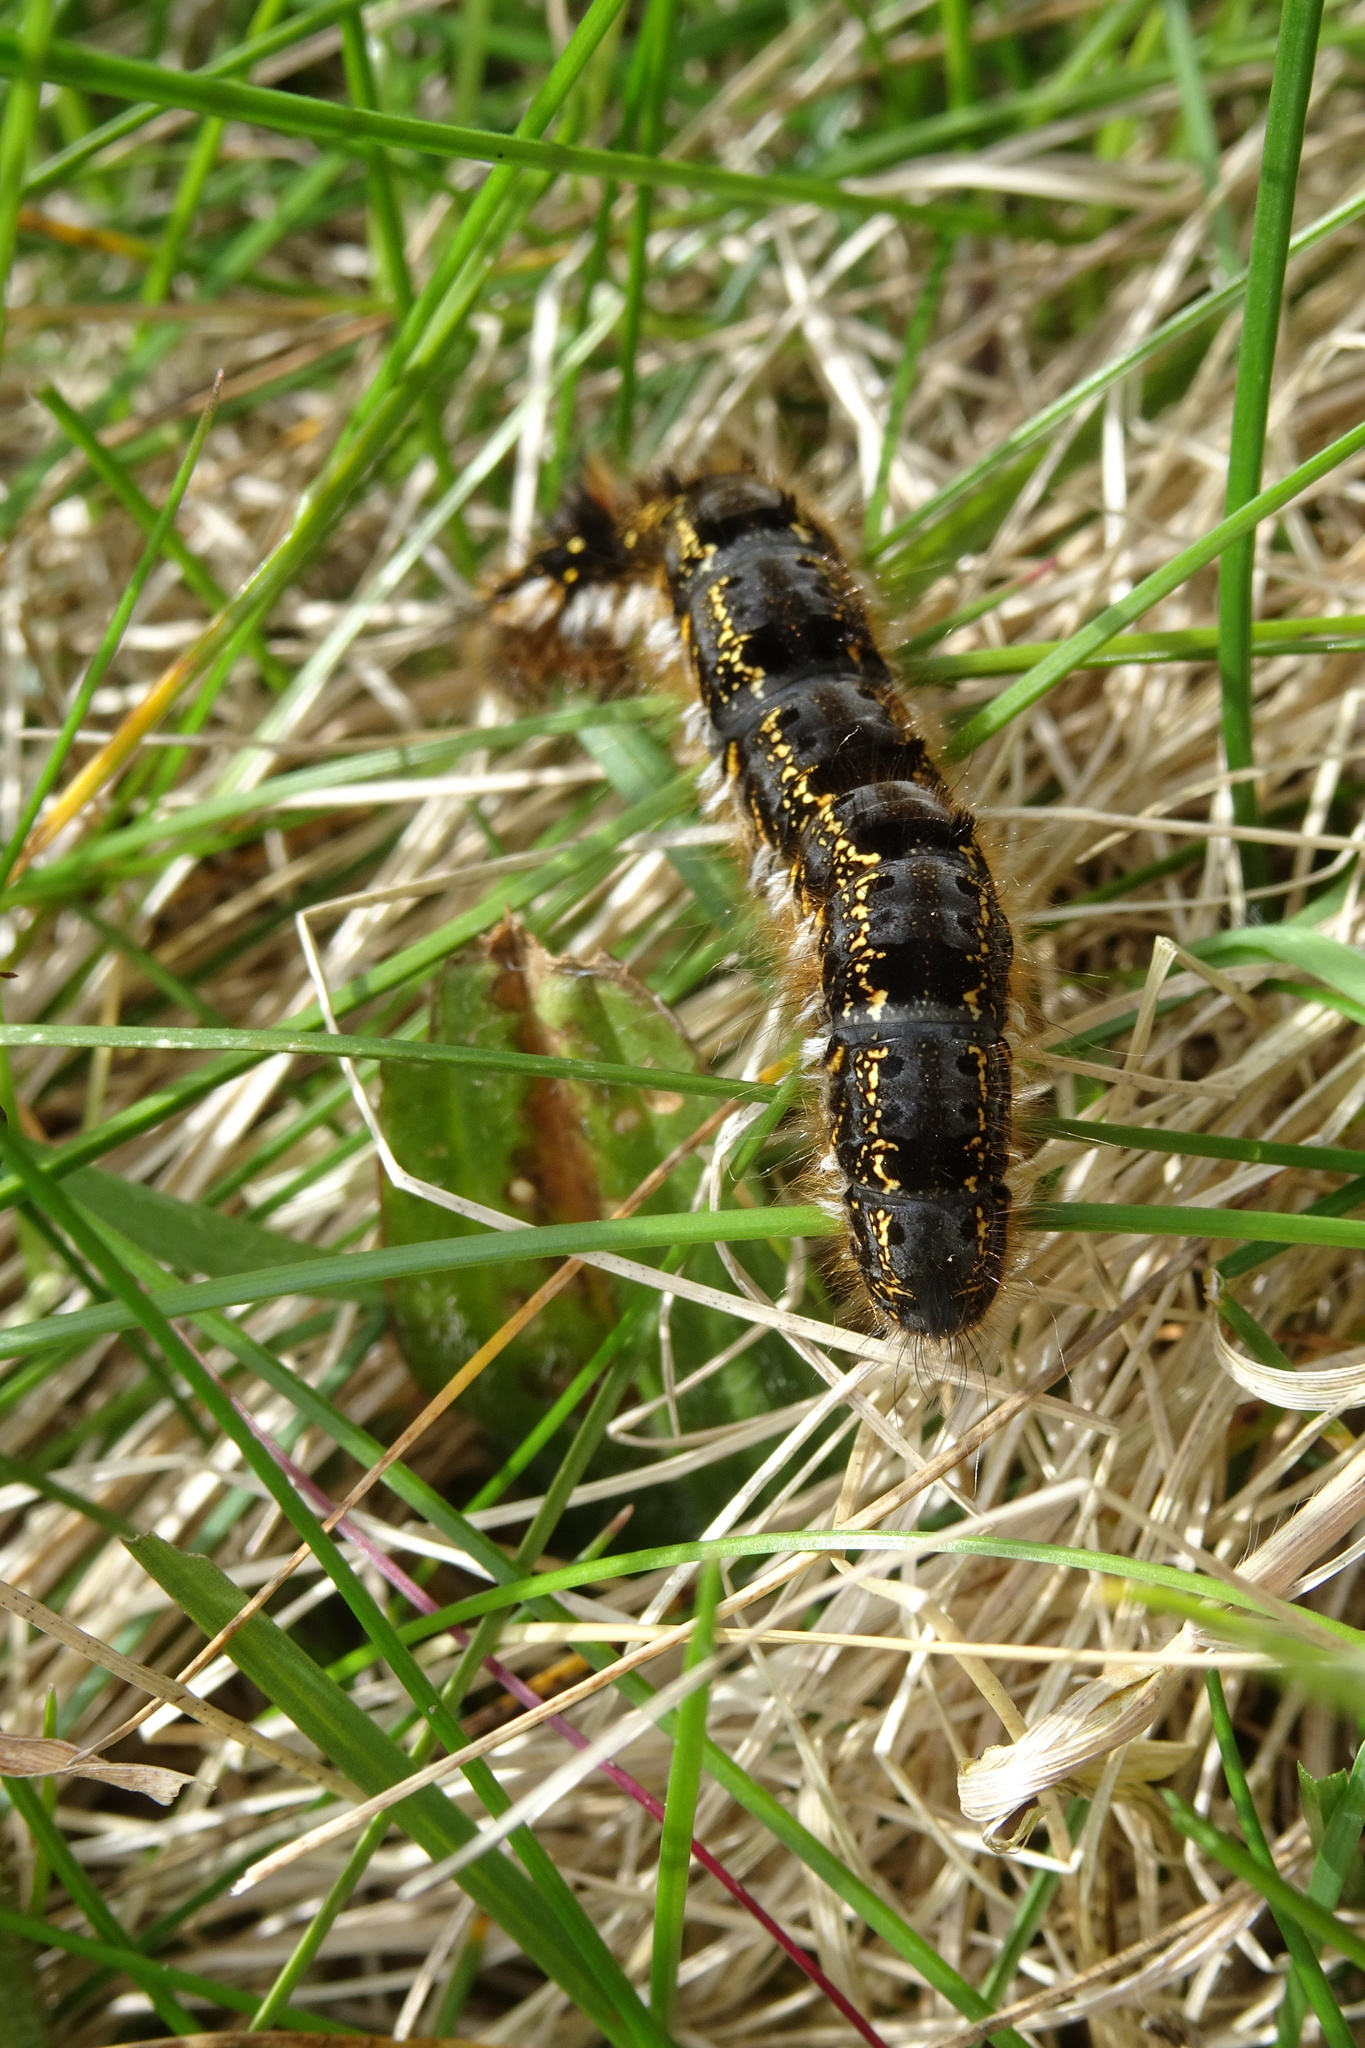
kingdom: Animalia
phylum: Arthropoda
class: Insecta
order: Lepidoptera
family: Lasiocampidae
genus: Euthrix
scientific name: Euthrix potatoria
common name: Drinker
